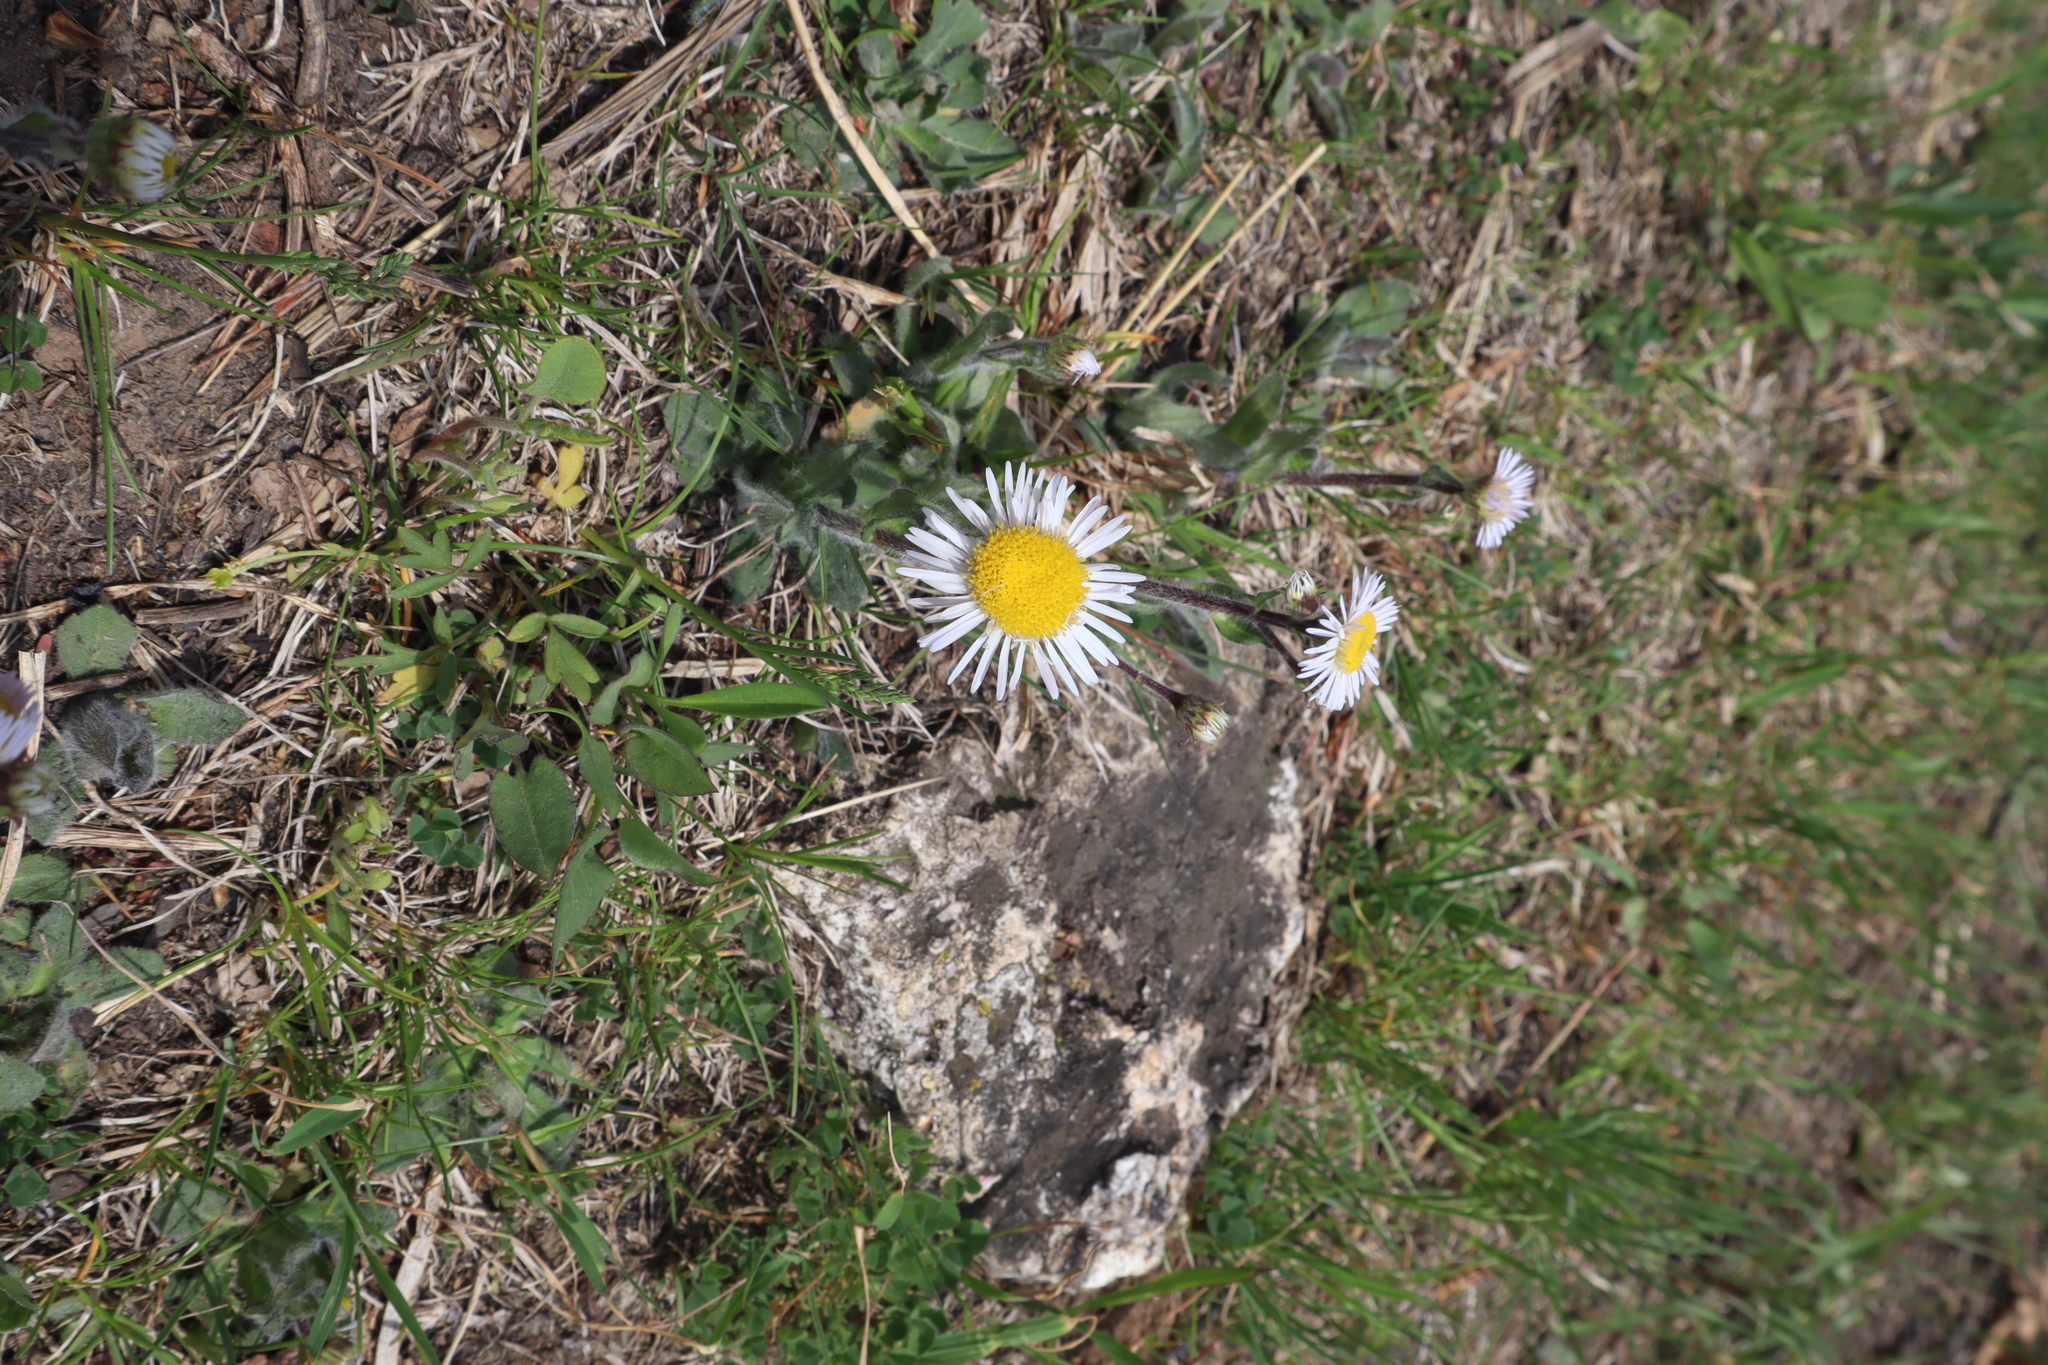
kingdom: Plantae
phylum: Tracheophyta
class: Magnoliopsida
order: Asterales
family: Asteraceae
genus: Erigeron
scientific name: Erigeron pulchellus
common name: Hairy fleabane
